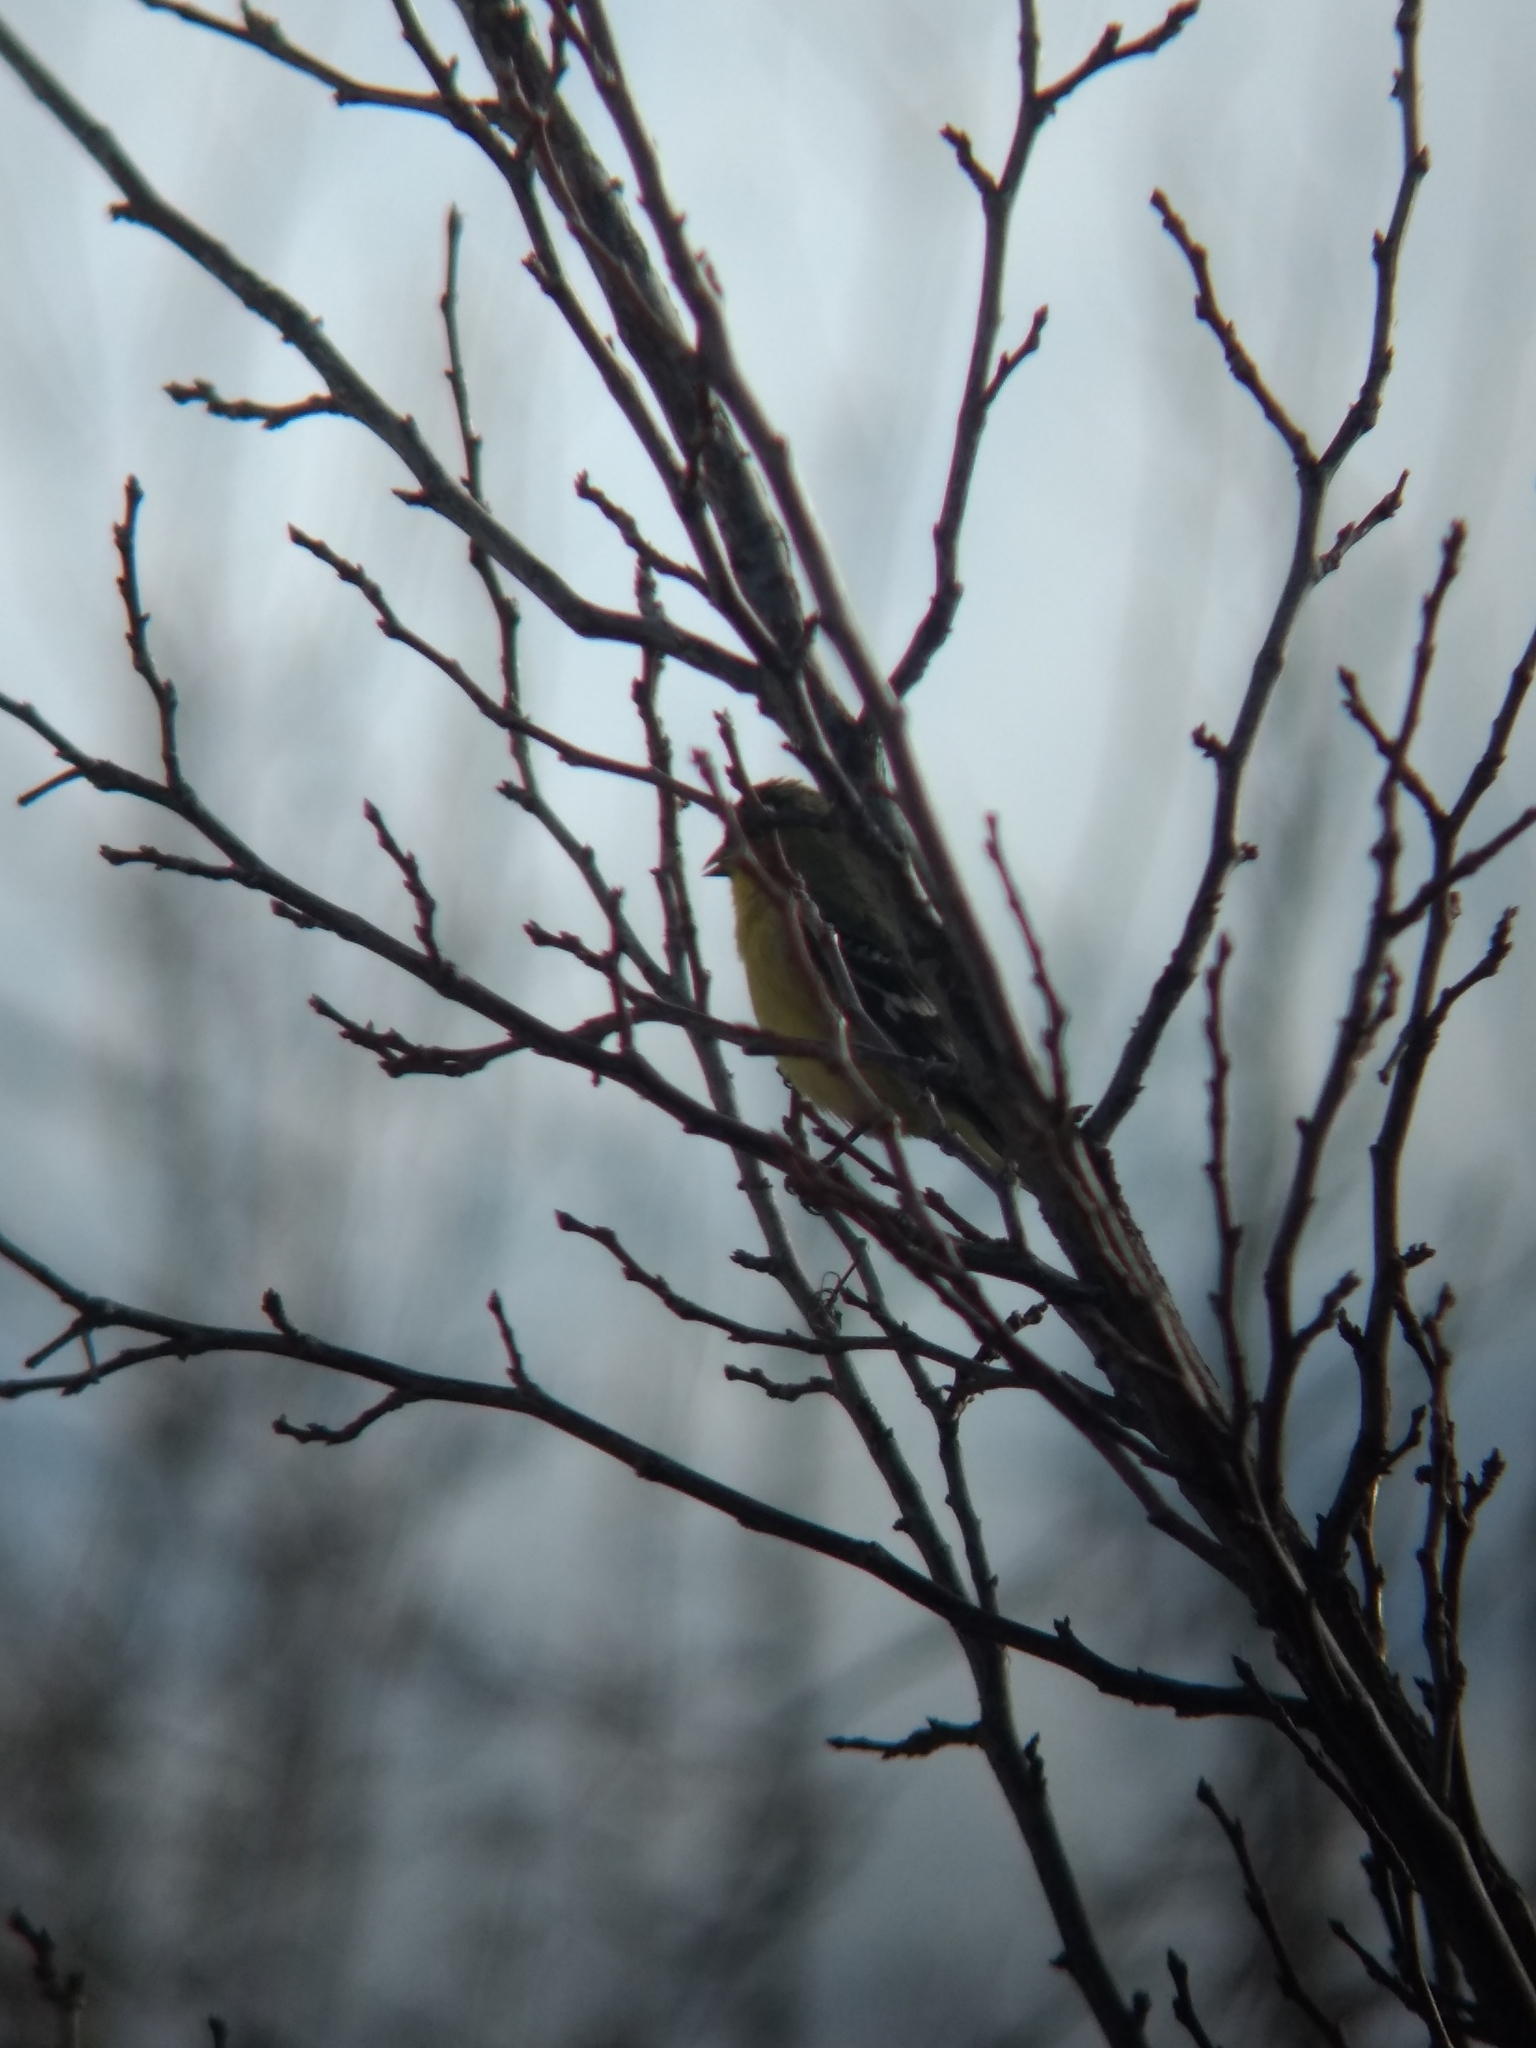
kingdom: Animalia
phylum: Chordata
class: Aves
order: Passeriformes
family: Fringillidae
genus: Spinus
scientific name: Spinus psaltria
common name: Lesser goldfinch
